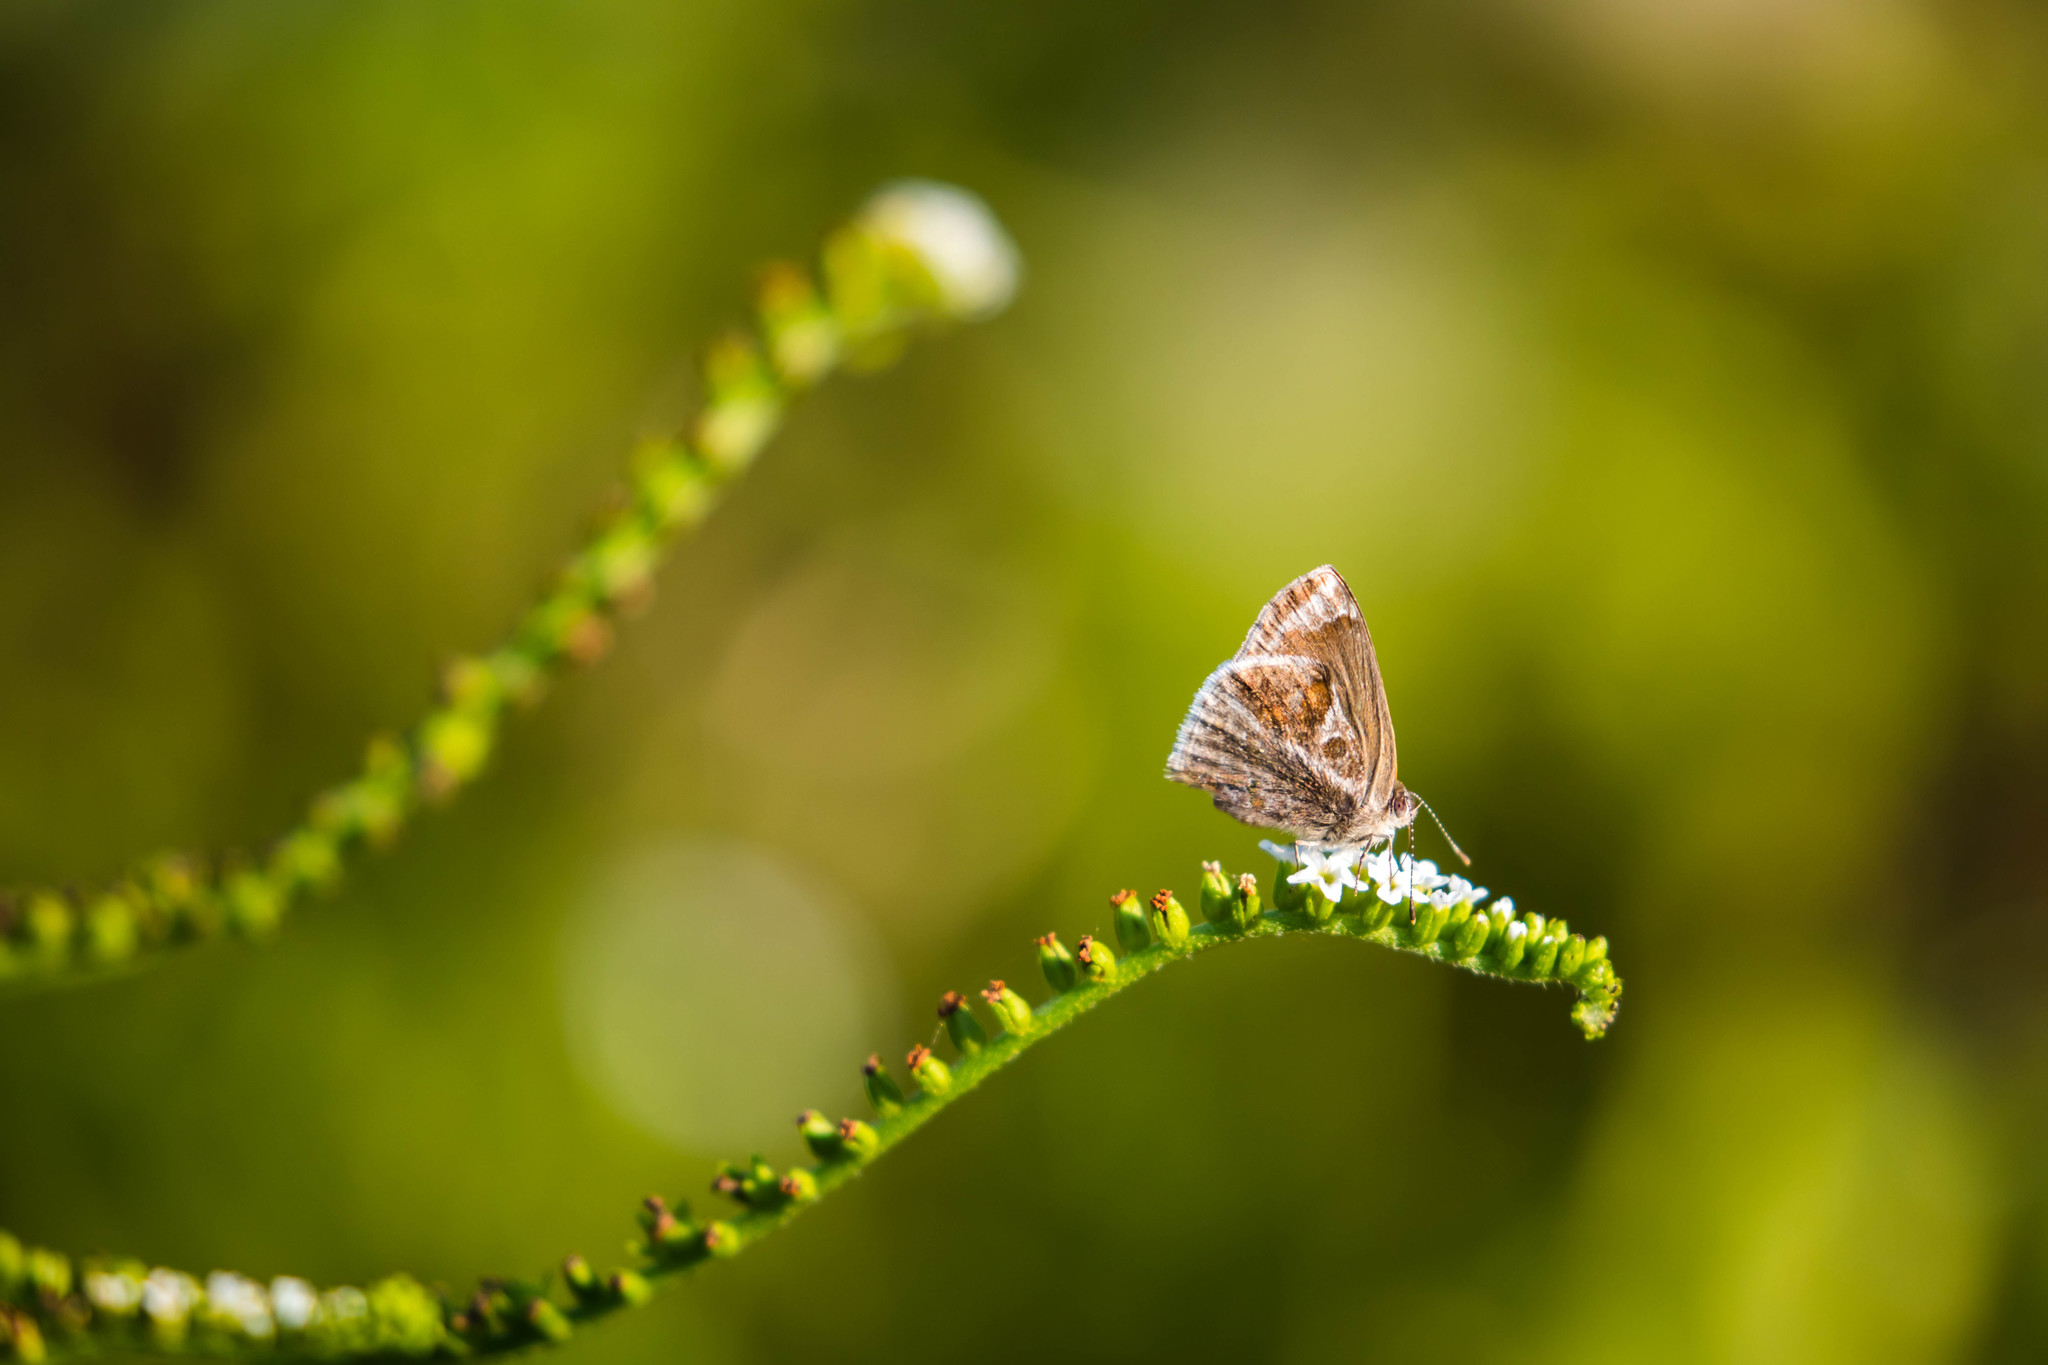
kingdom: Animalia
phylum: Arthropoda
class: Insecta
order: Lepidoptera
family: Lycaenidae
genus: Strymon
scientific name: Strymon bazochii
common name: Lantana scrub-hairstreak
